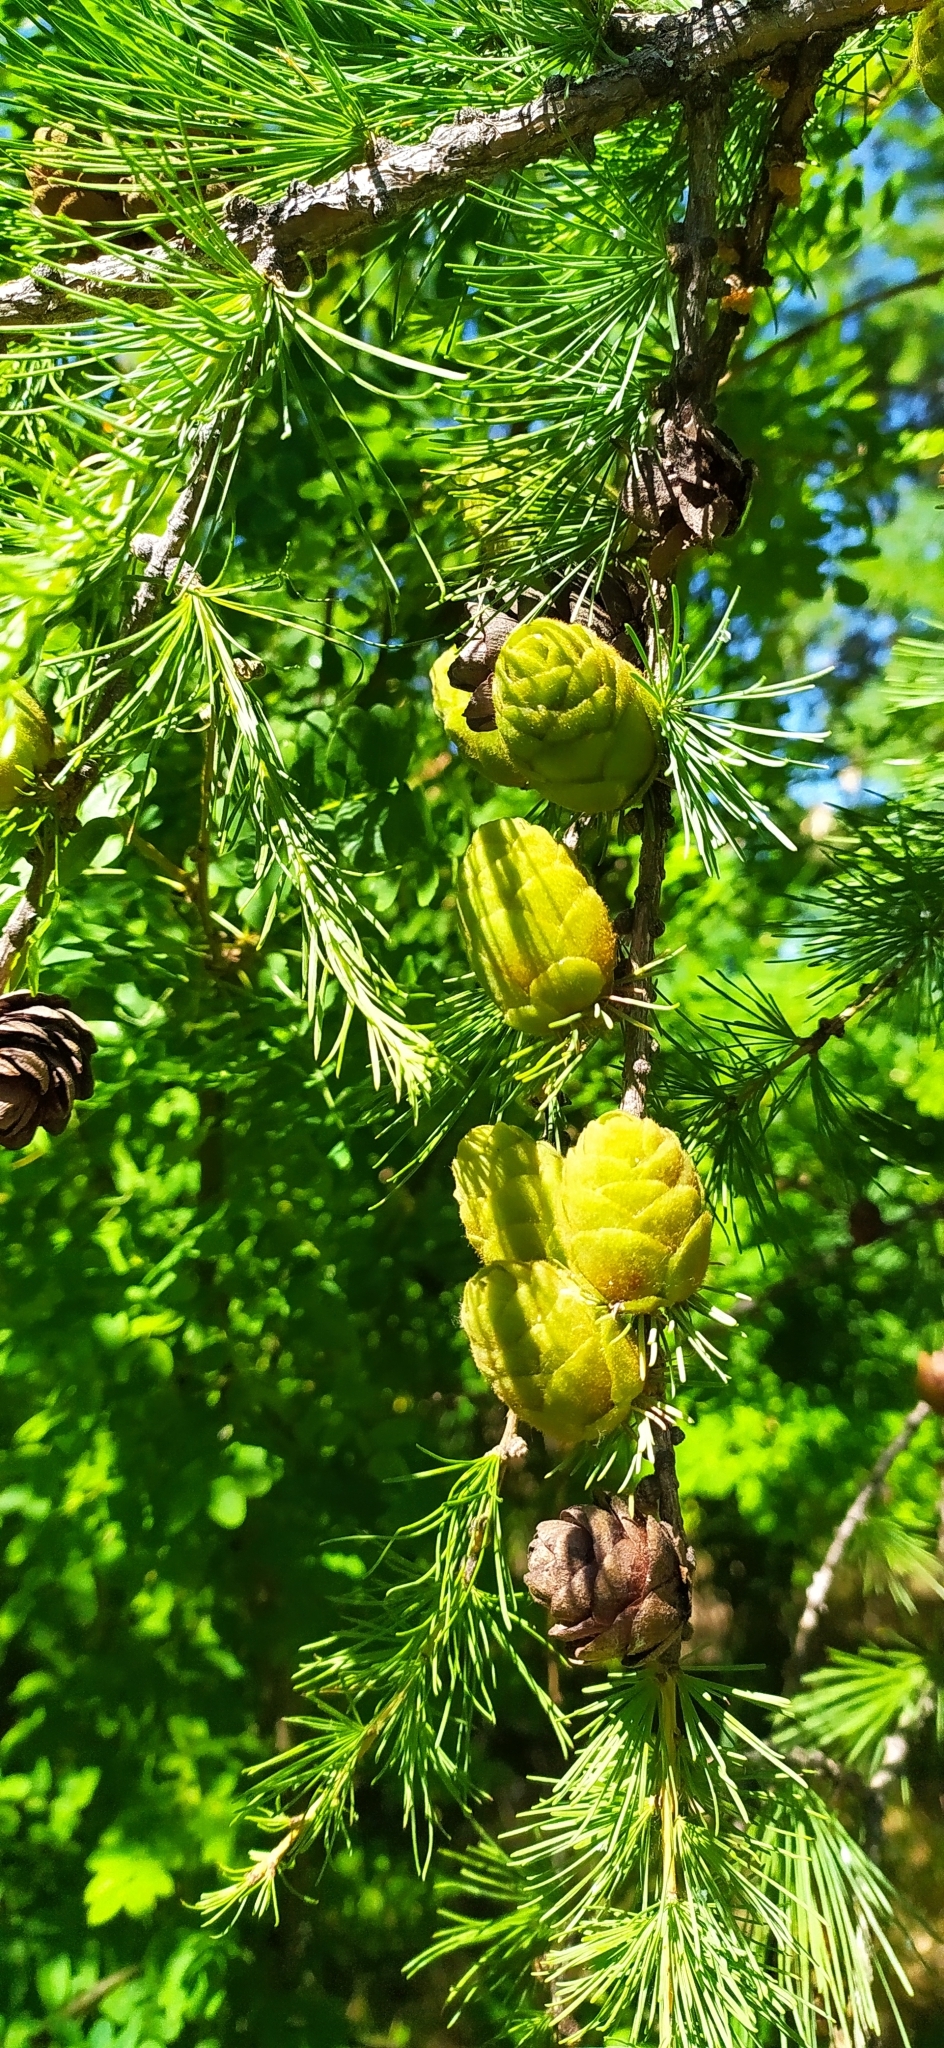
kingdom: Plantae
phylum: Tracheophyta
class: Pinopsida
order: Pinales
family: Pinaceae
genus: Larix
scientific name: Larix sibirica
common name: Siberian larch
